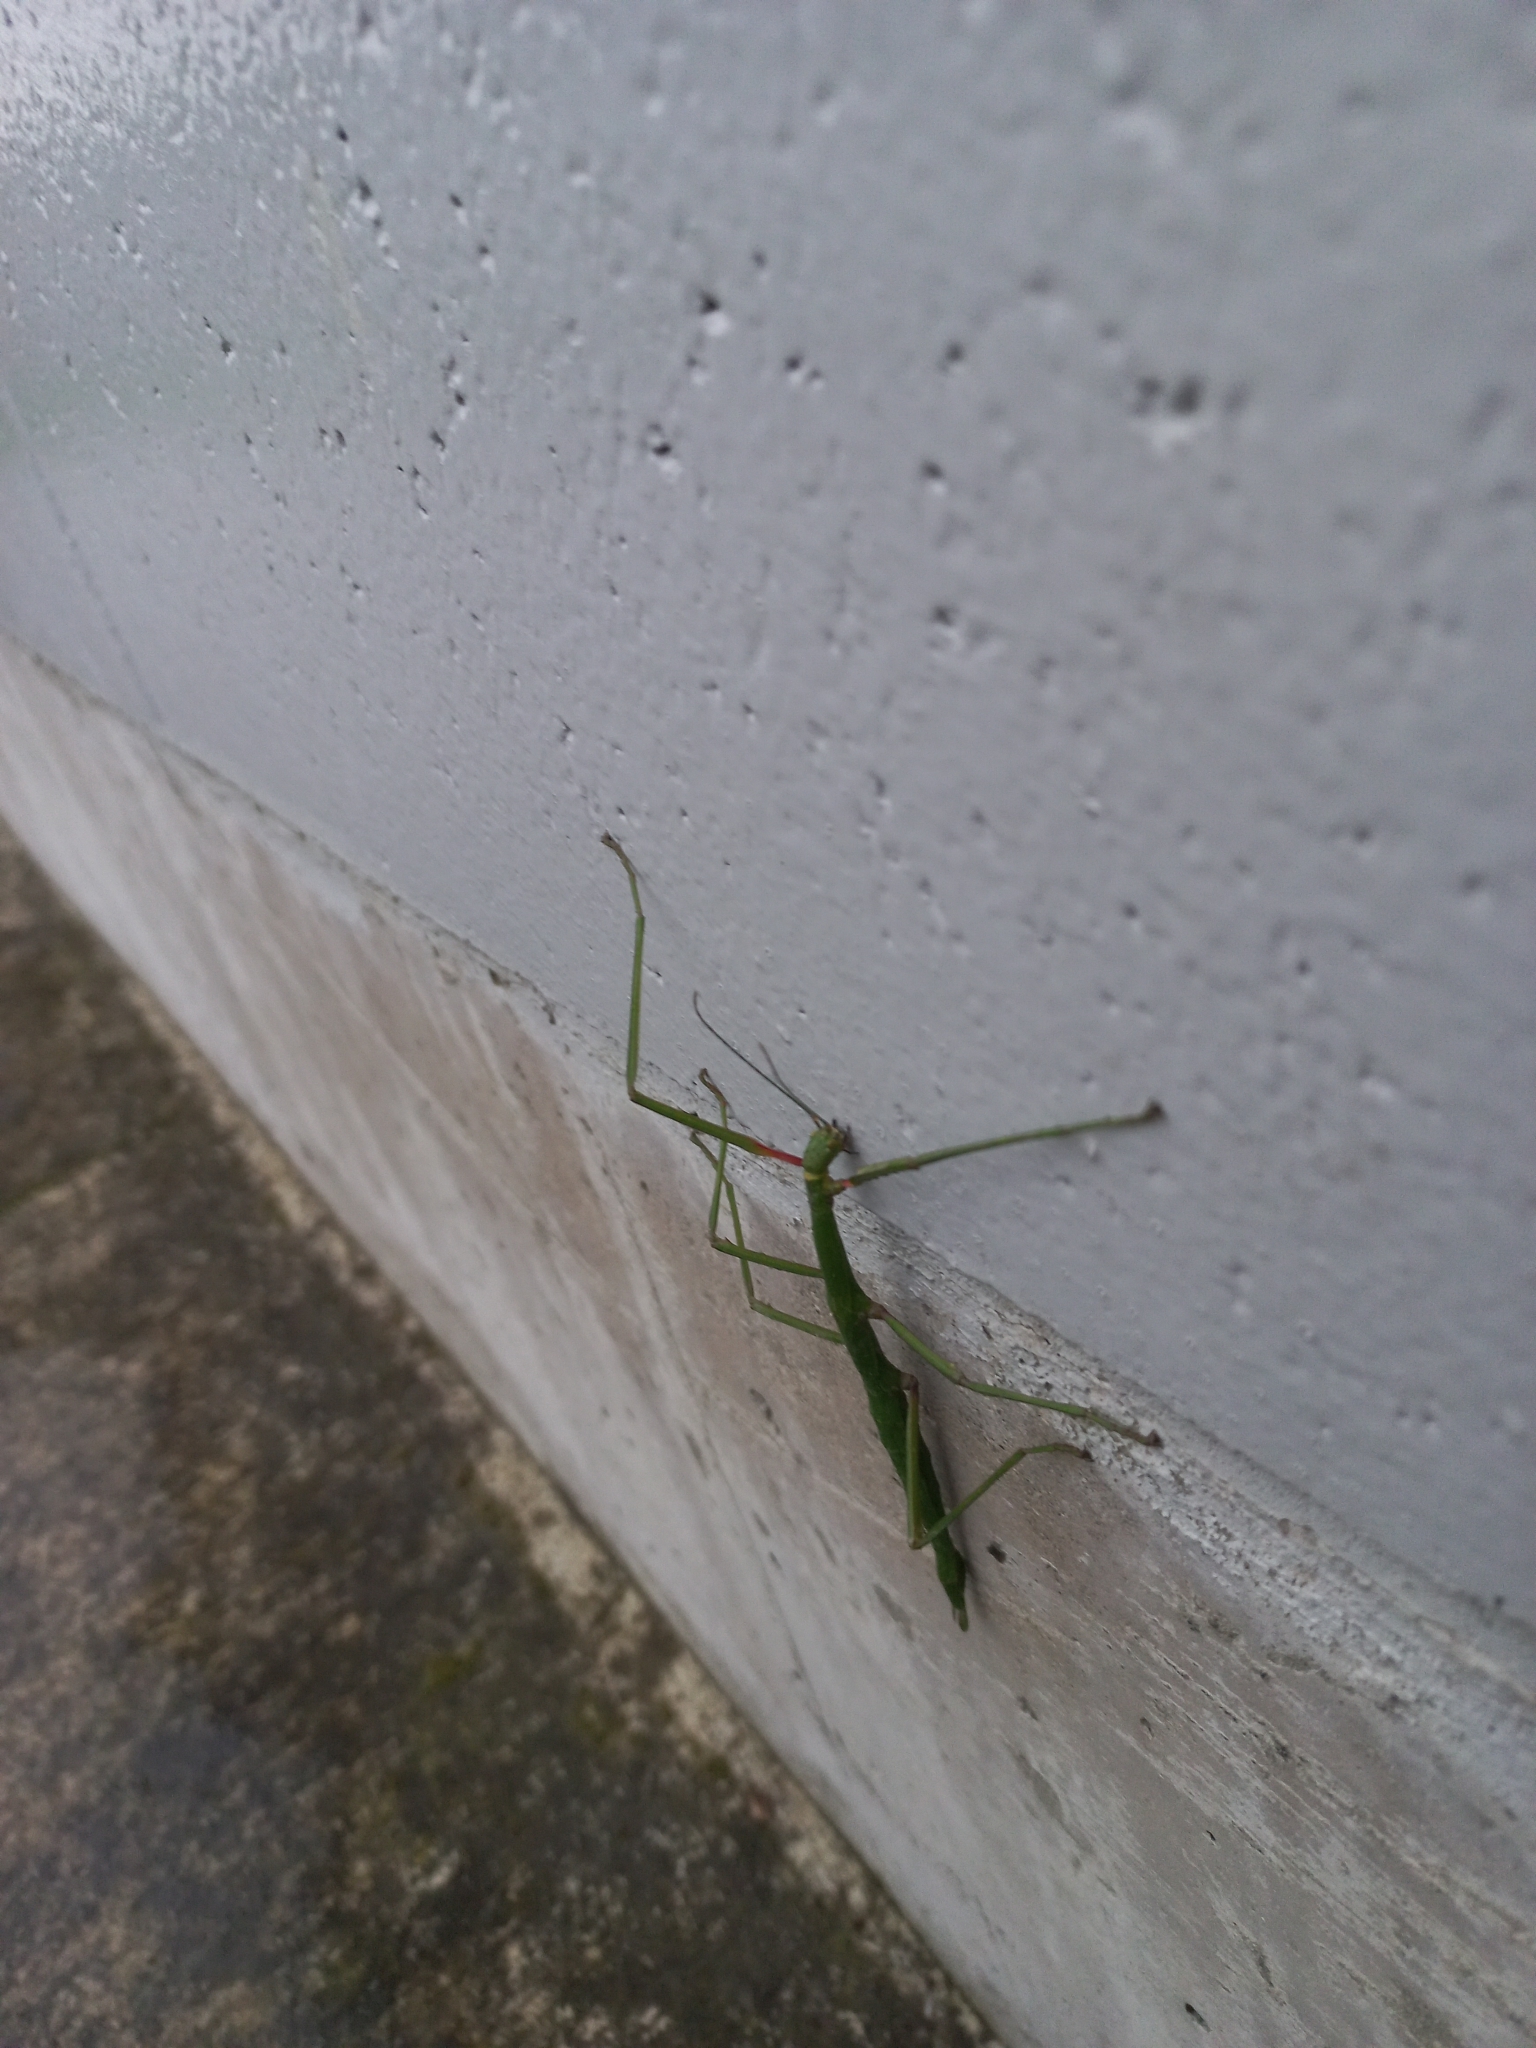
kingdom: Animalia
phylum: Arthropoda
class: Insecta
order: Phasmida
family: Phasmatidae
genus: Acanthoxyla
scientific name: Acanthoxyla inermis
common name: Unarmed stick insect
